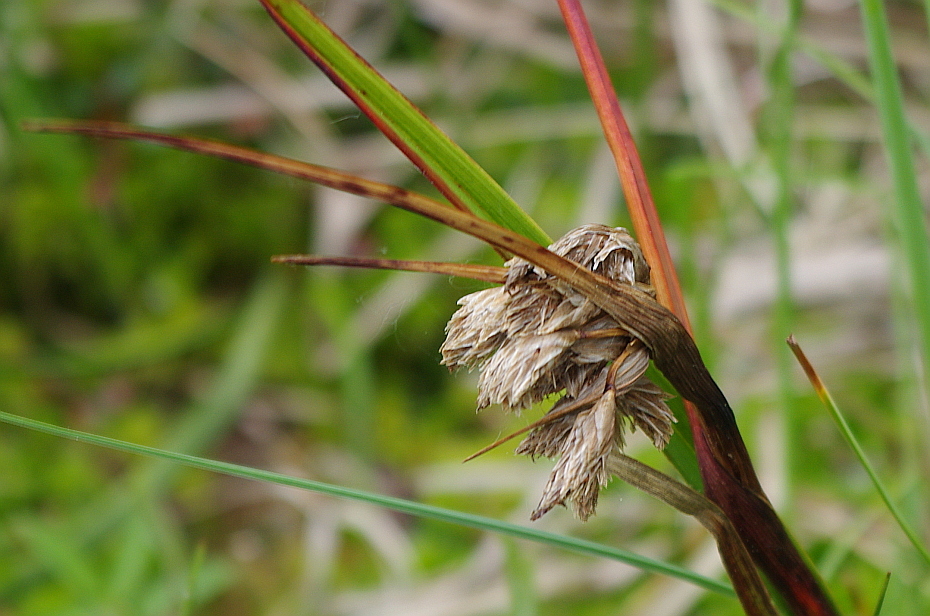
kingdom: Plantae
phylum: Tracheophyta
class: Liliopsida
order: Poales
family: Cyperaceae
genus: Eriophorum
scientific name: Eriophorum angustifolium
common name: Common cottongrass
